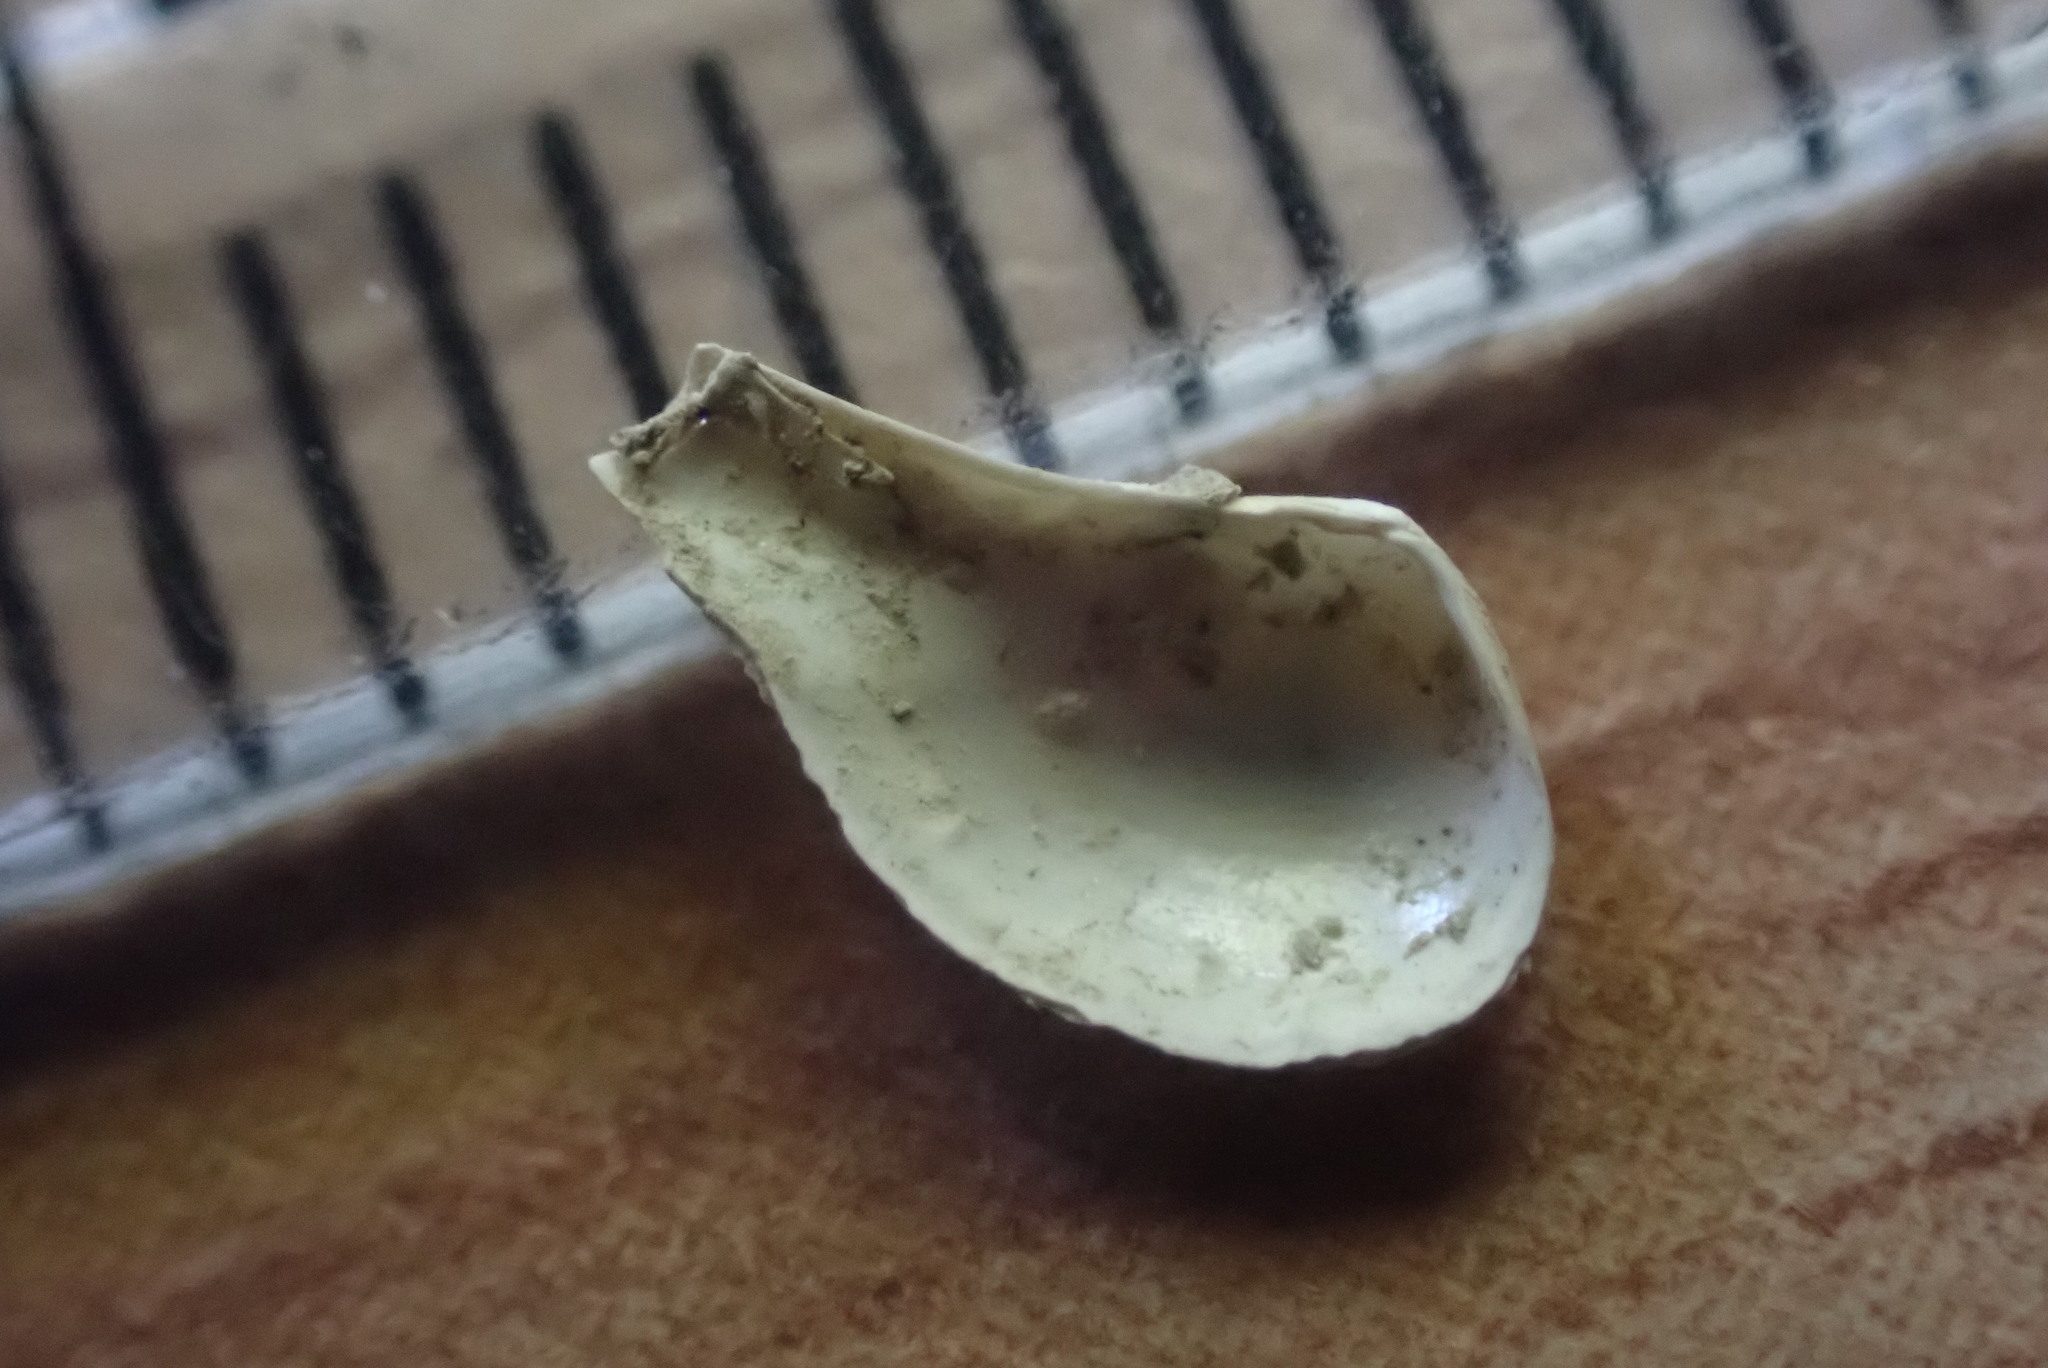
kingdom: Animalia
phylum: Mollusca
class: Bivalvia
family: Cuspidariidae
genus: Cuspidaria
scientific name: Cuspidaria willetti
